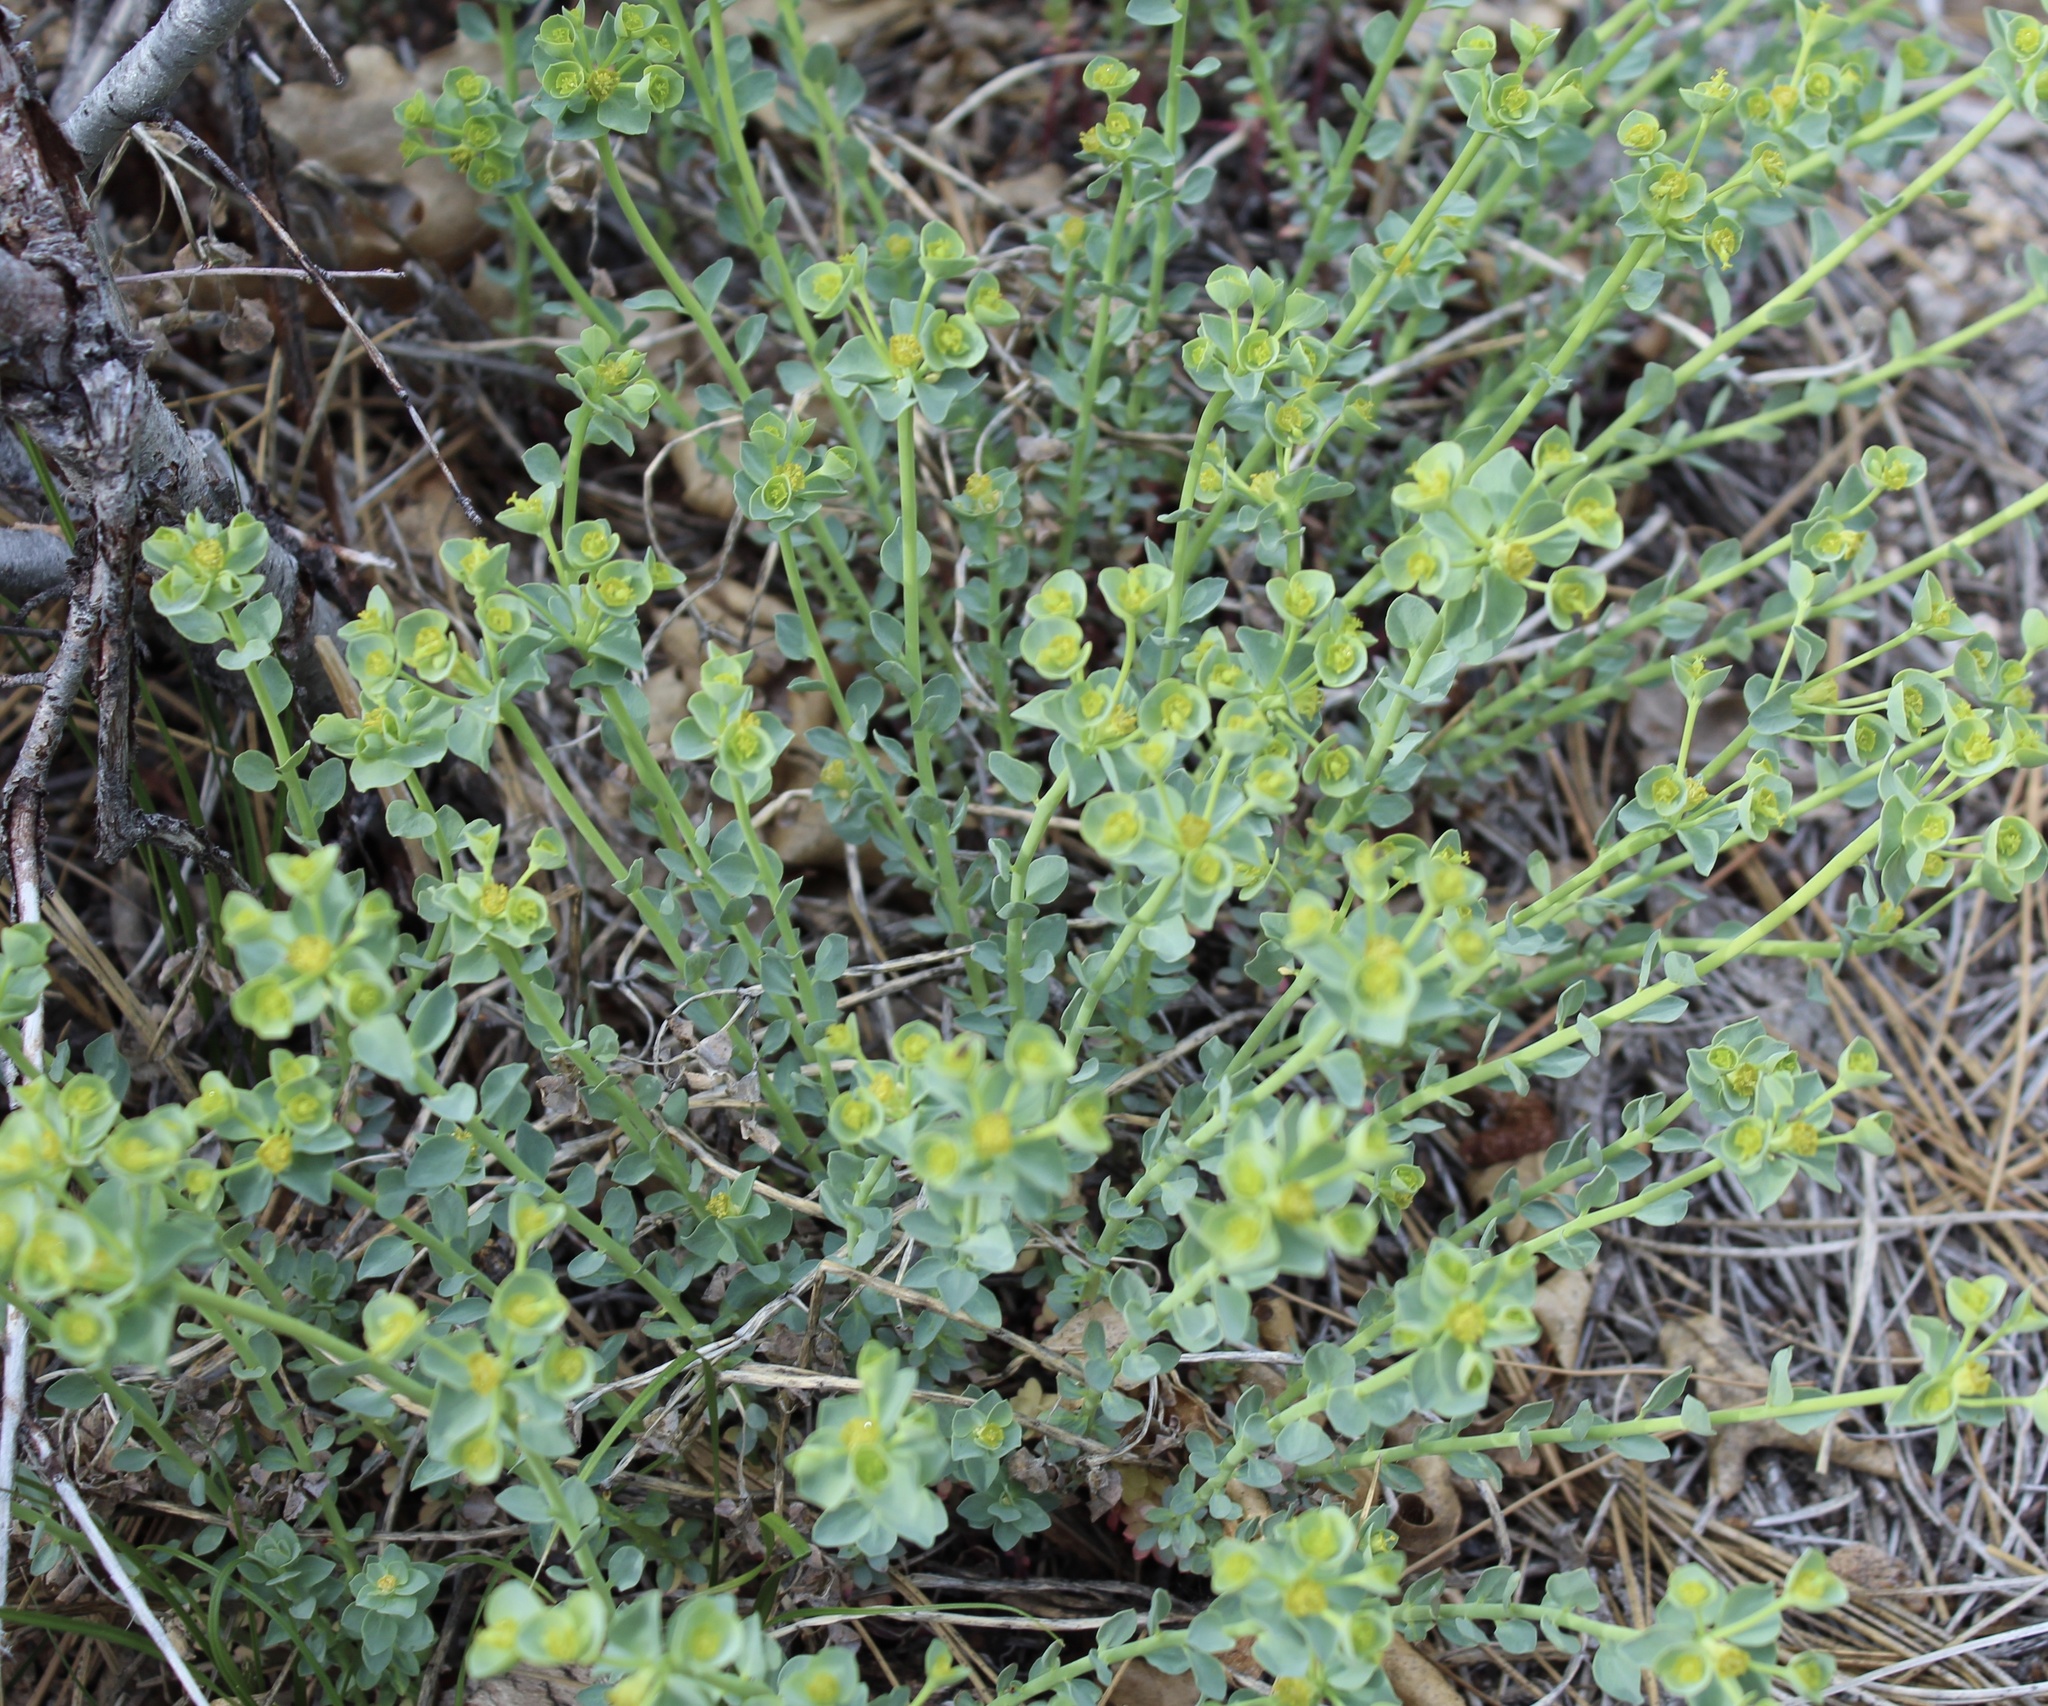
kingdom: Plantae
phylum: Tracheophyta
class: Magnoliopsida
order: Malpighiales
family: Euphorbiaceae
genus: Euphorbia
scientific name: Euphorbia lurida
